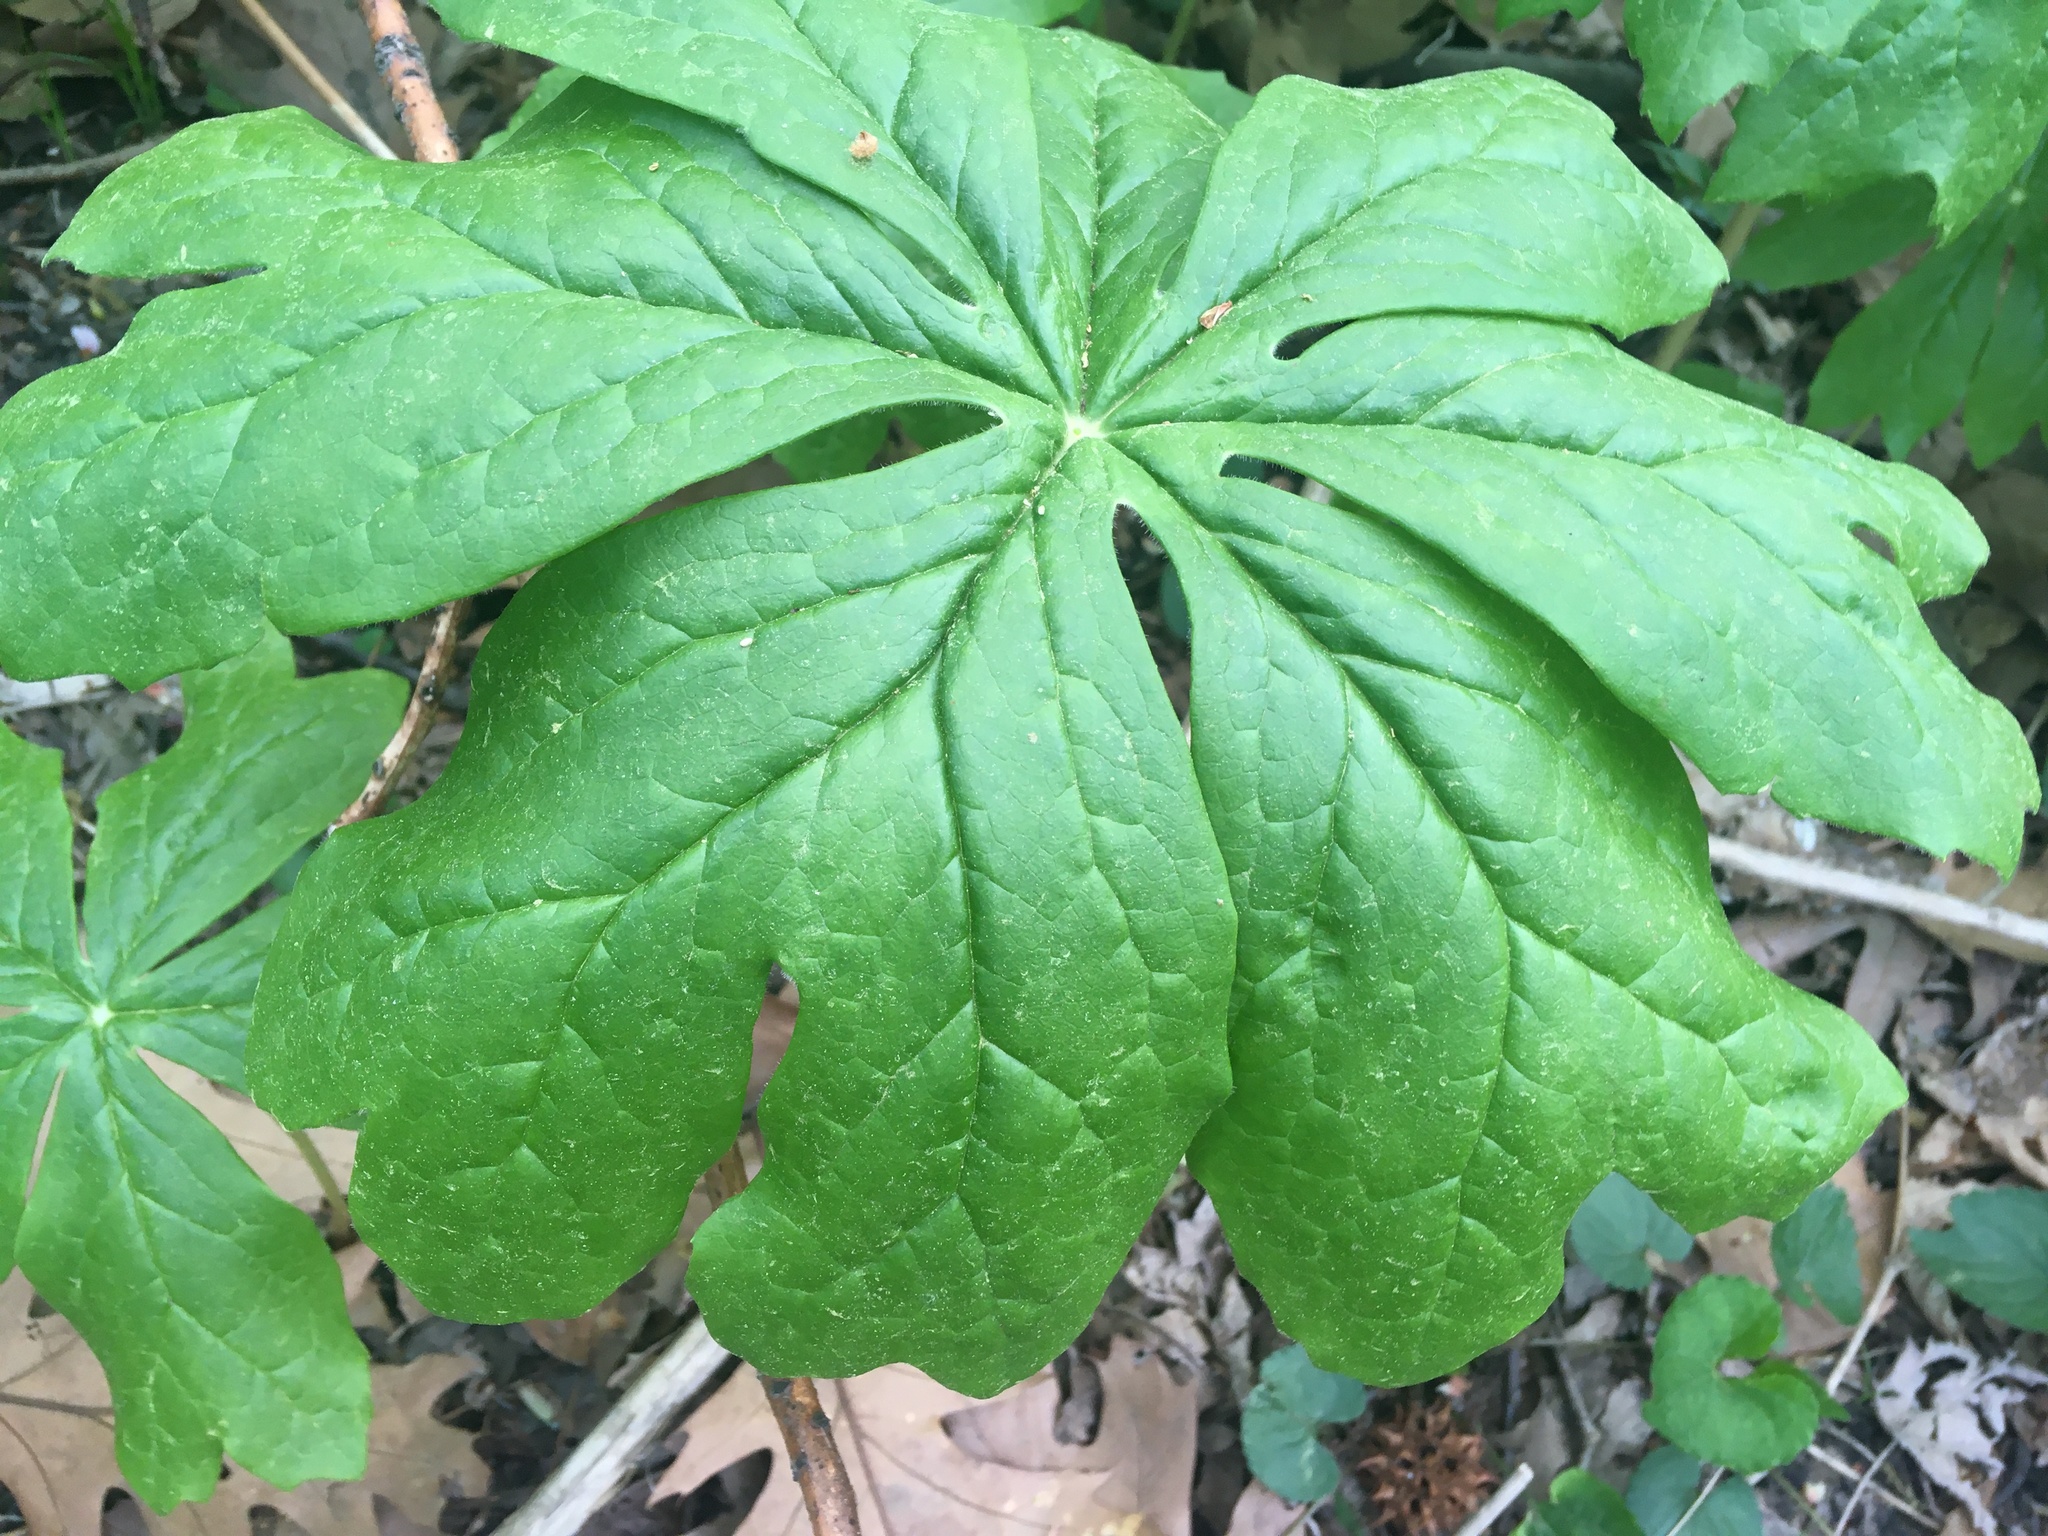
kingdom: Plantae
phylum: Tracheophyta
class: Magnoliopsida
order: Ranunculales
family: Berberidaceae
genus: Podophyllum
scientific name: Podophyllum peltatum
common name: Wild mandrake
